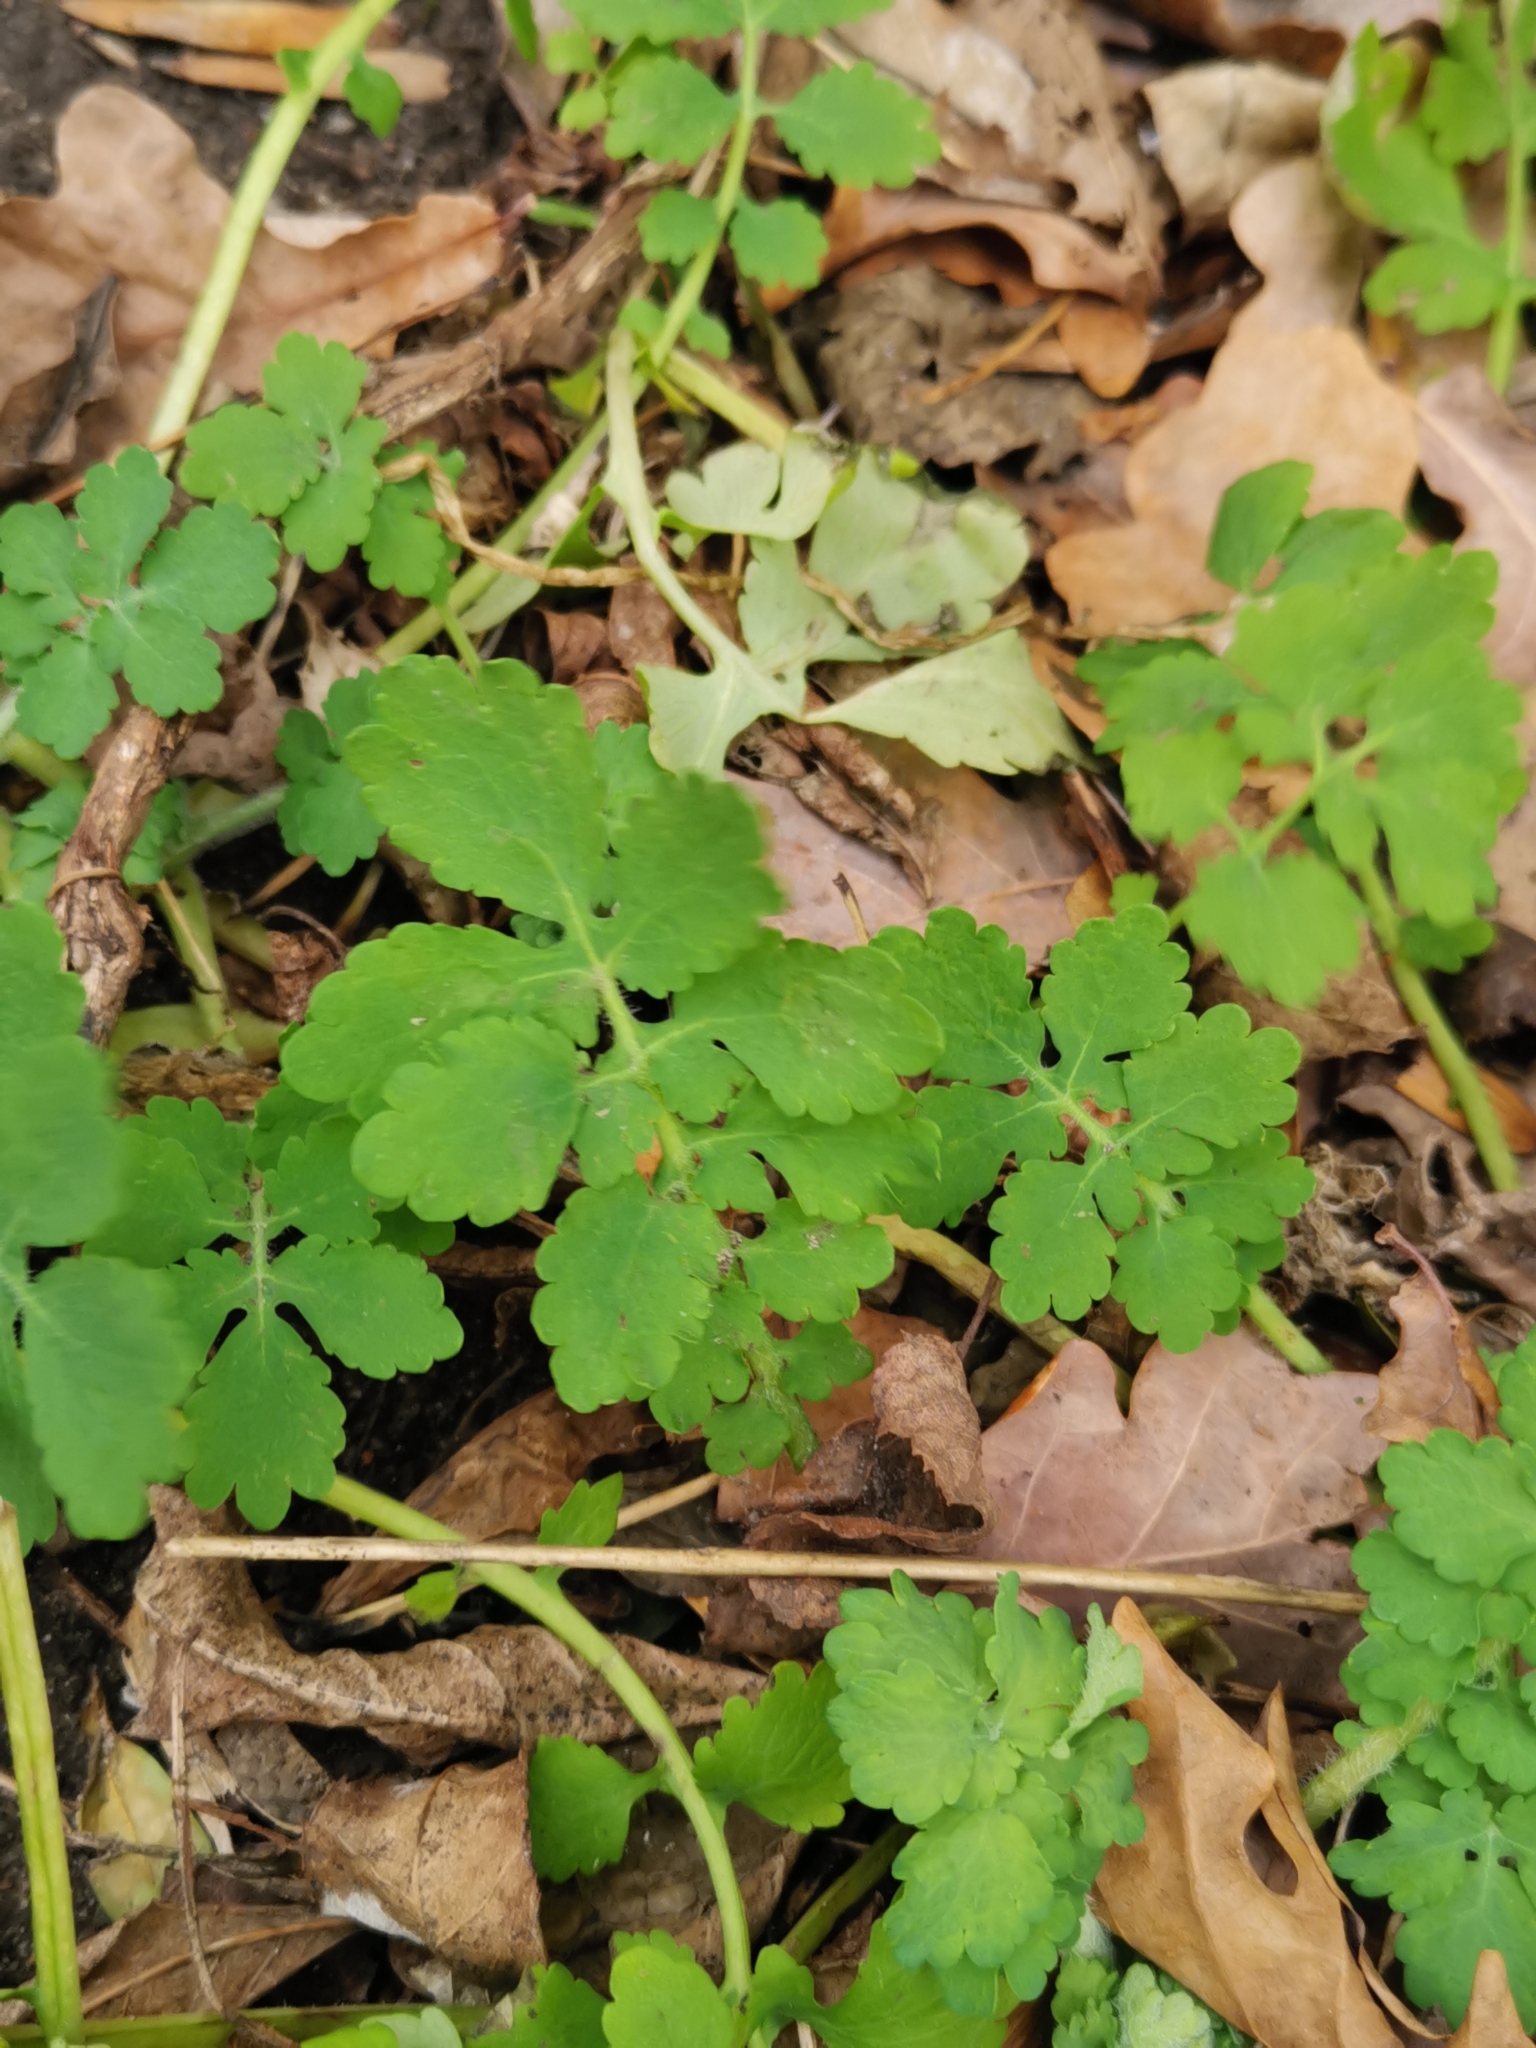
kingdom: Plantae
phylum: Tracheophyta
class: Magnoliopsida
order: Ranunculales
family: Papaveraceae
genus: Chelidonium
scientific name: Chelidonium majus
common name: Greater celandine
